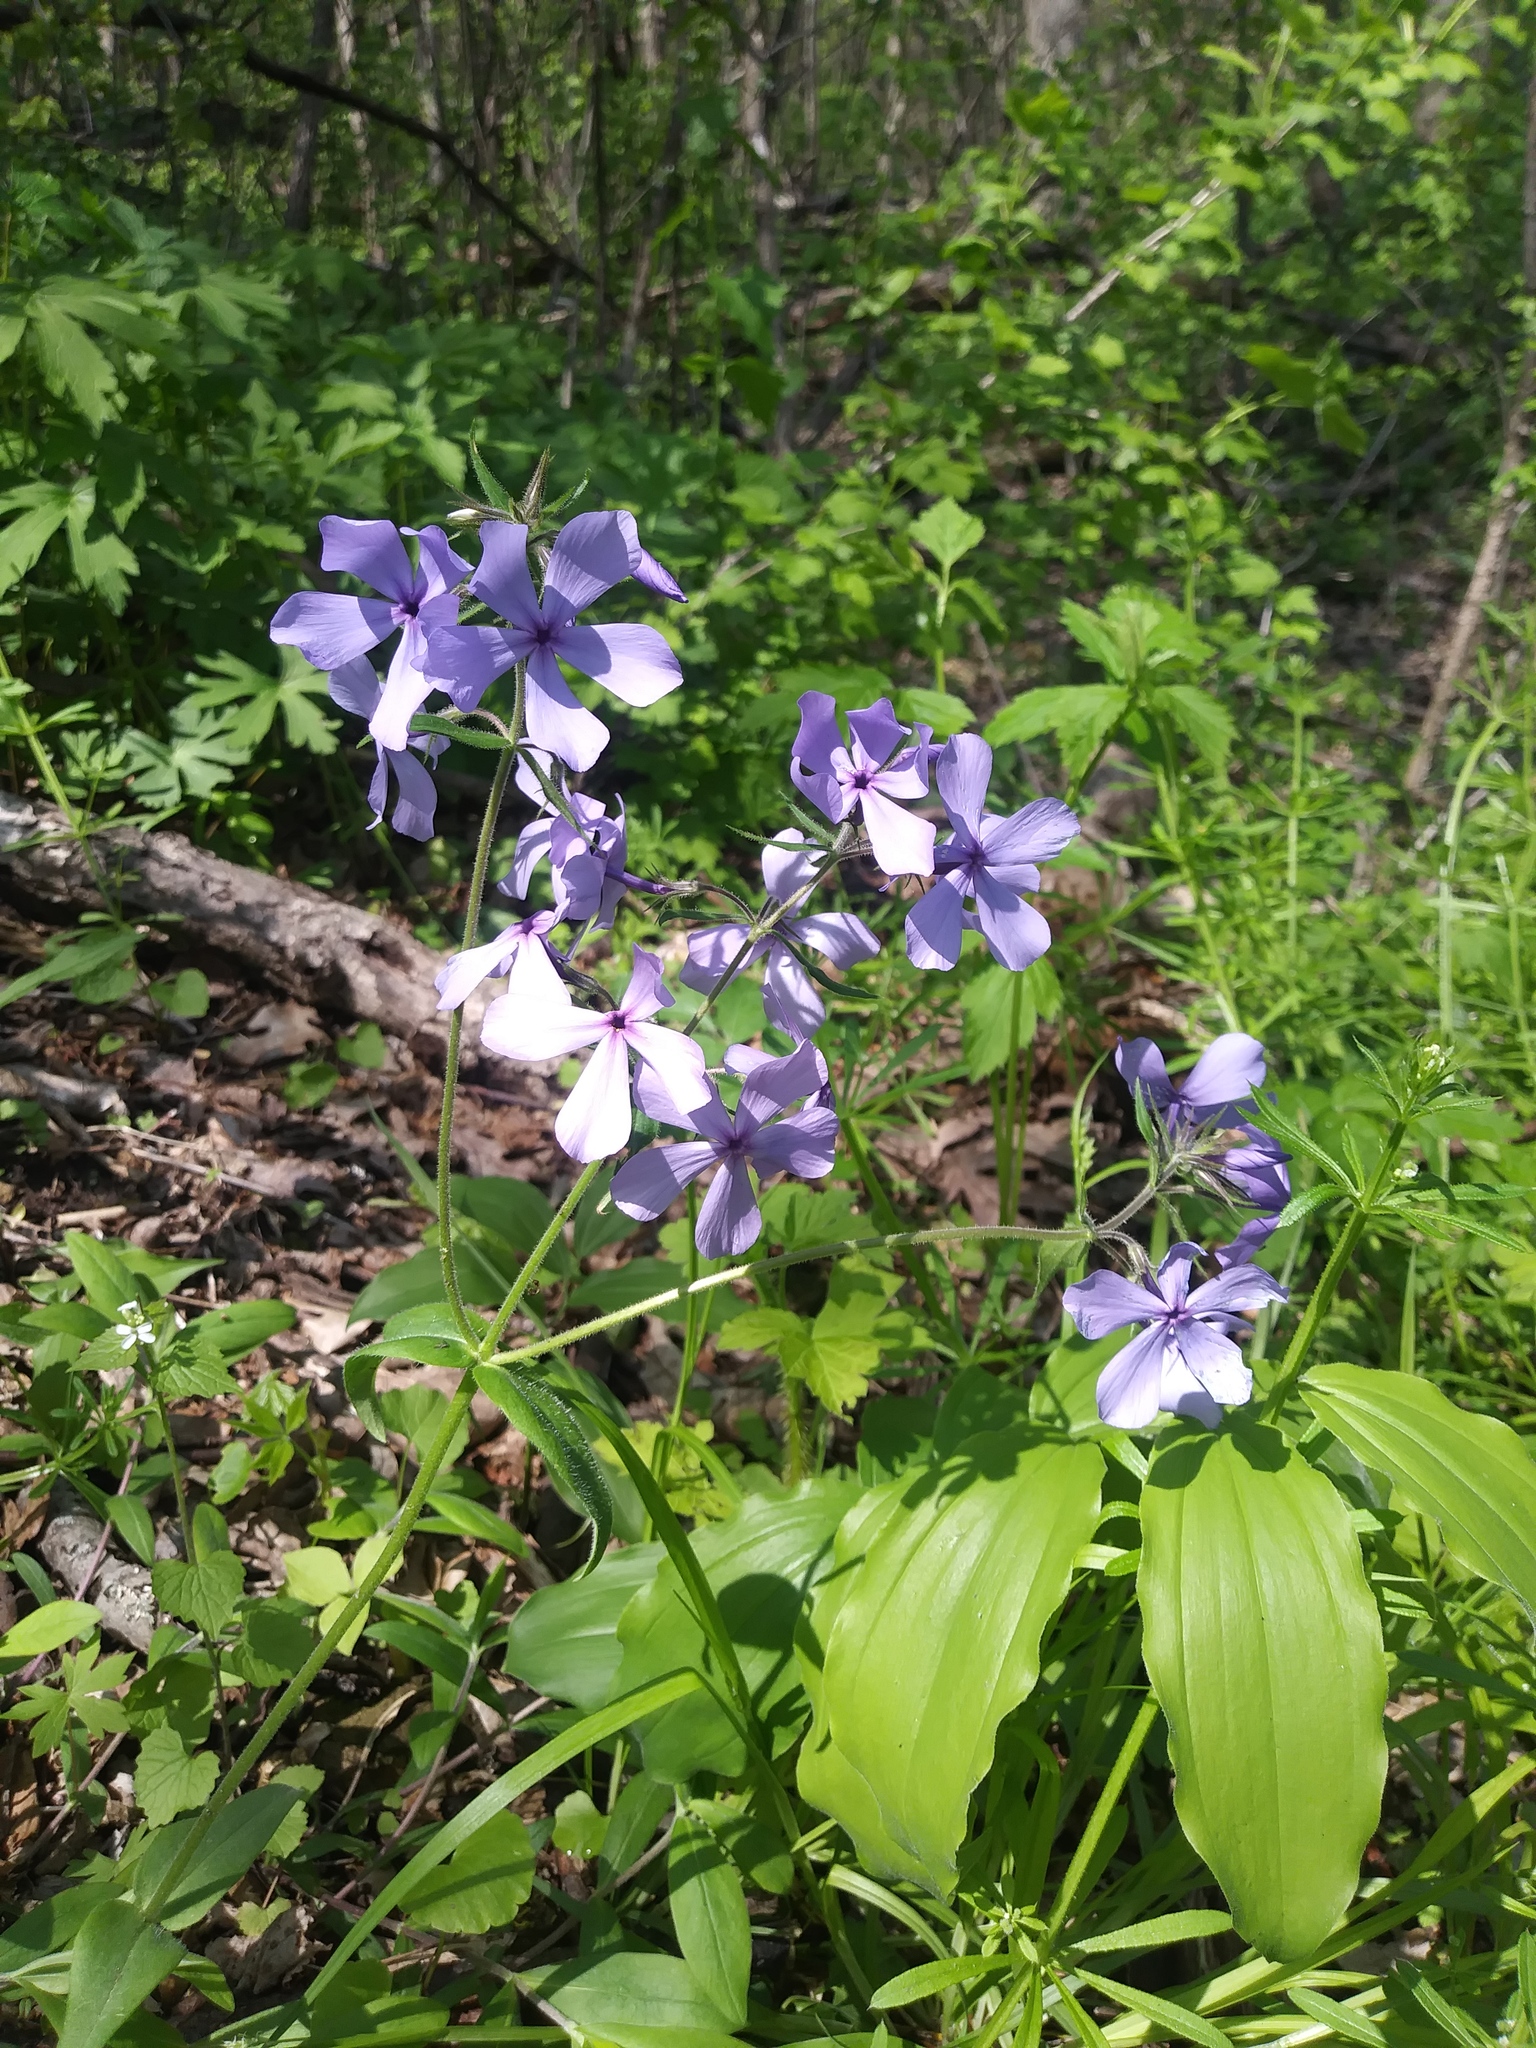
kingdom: Plantae
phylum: Tracheophyta
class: Magnoliopsida
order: Ericales
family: Polemoniaceae
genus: Phlox
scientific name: Phlox divaricata
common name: Blue phlox
